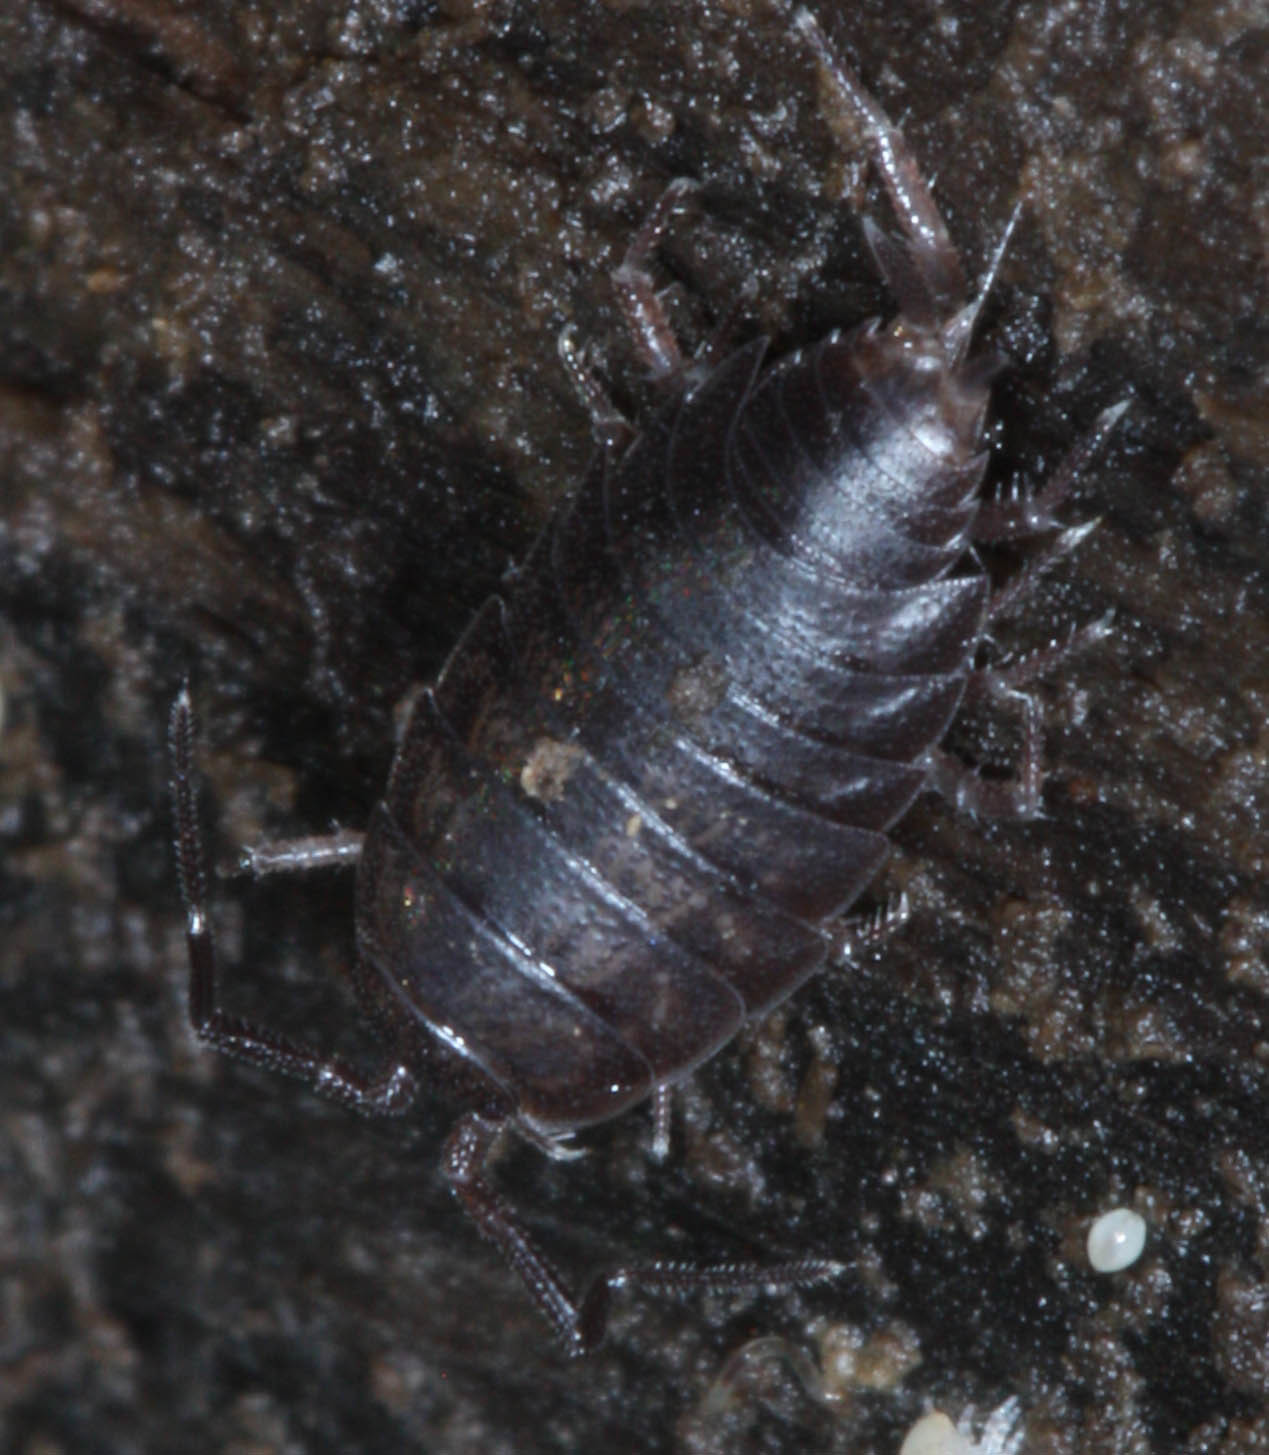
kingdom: Animalia
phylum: Arthropoda
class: Malacostraca
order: Isopoda
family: Halophilosciidae
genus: Littorophiloscia
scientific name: Littorophiloscia richardsonae
